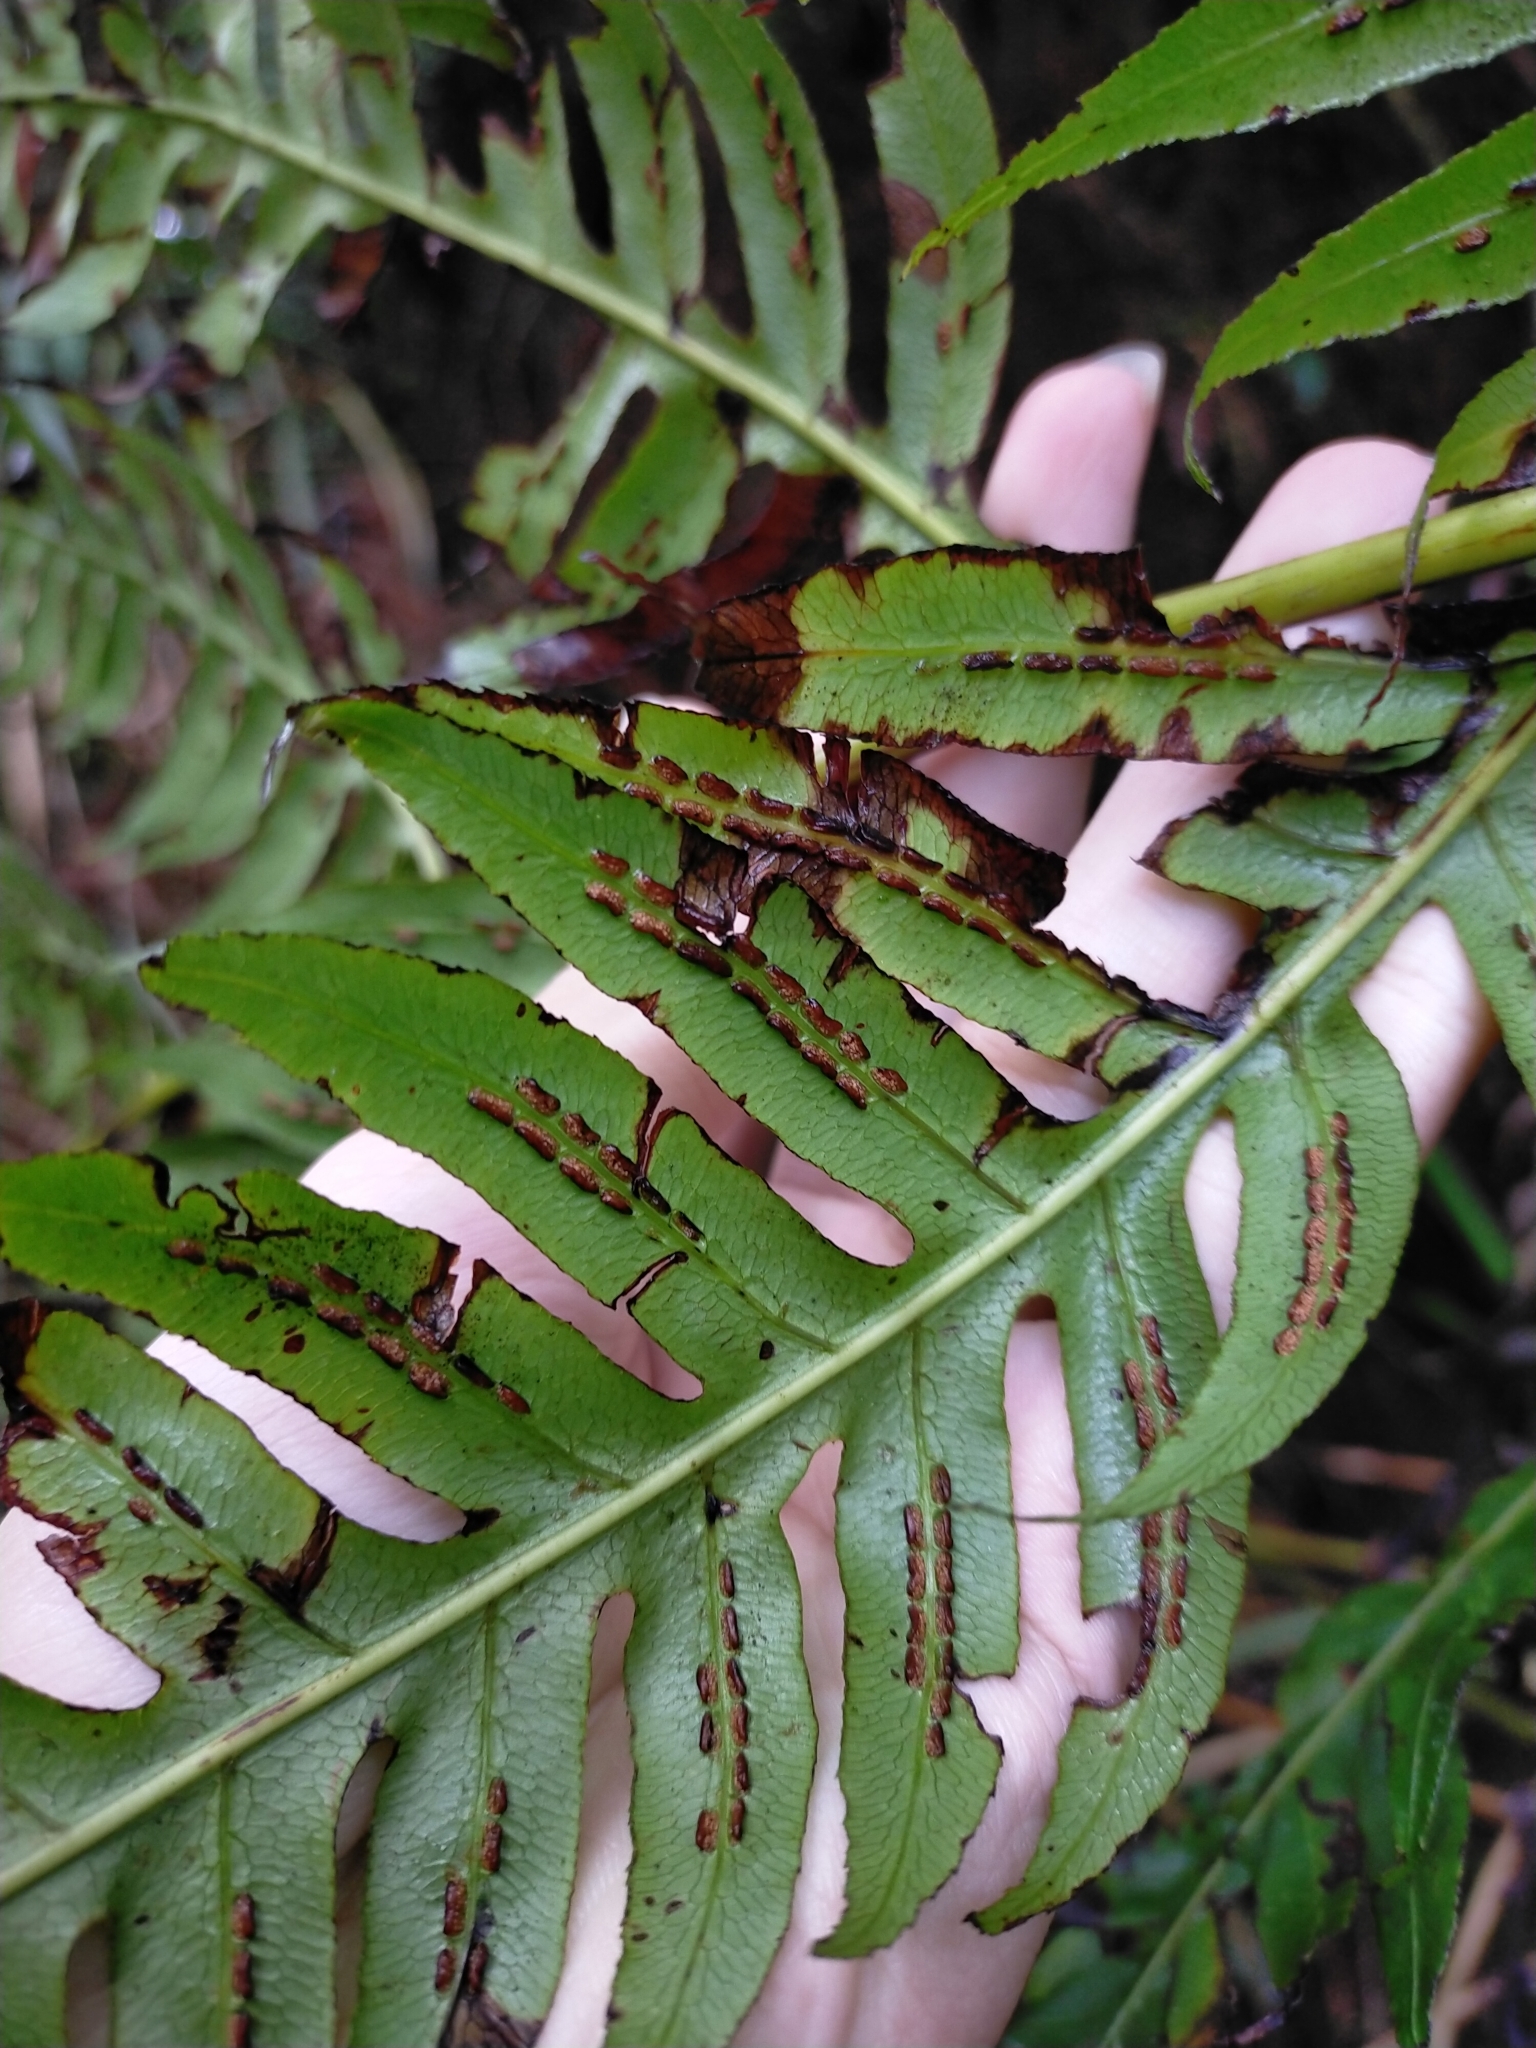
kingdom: Plantae
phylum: Tracheophyta
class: Polypodiopsida
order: Polypodiales
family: Blechnaceae
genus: Woodwardia
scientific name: Woodwardia unigemmata
